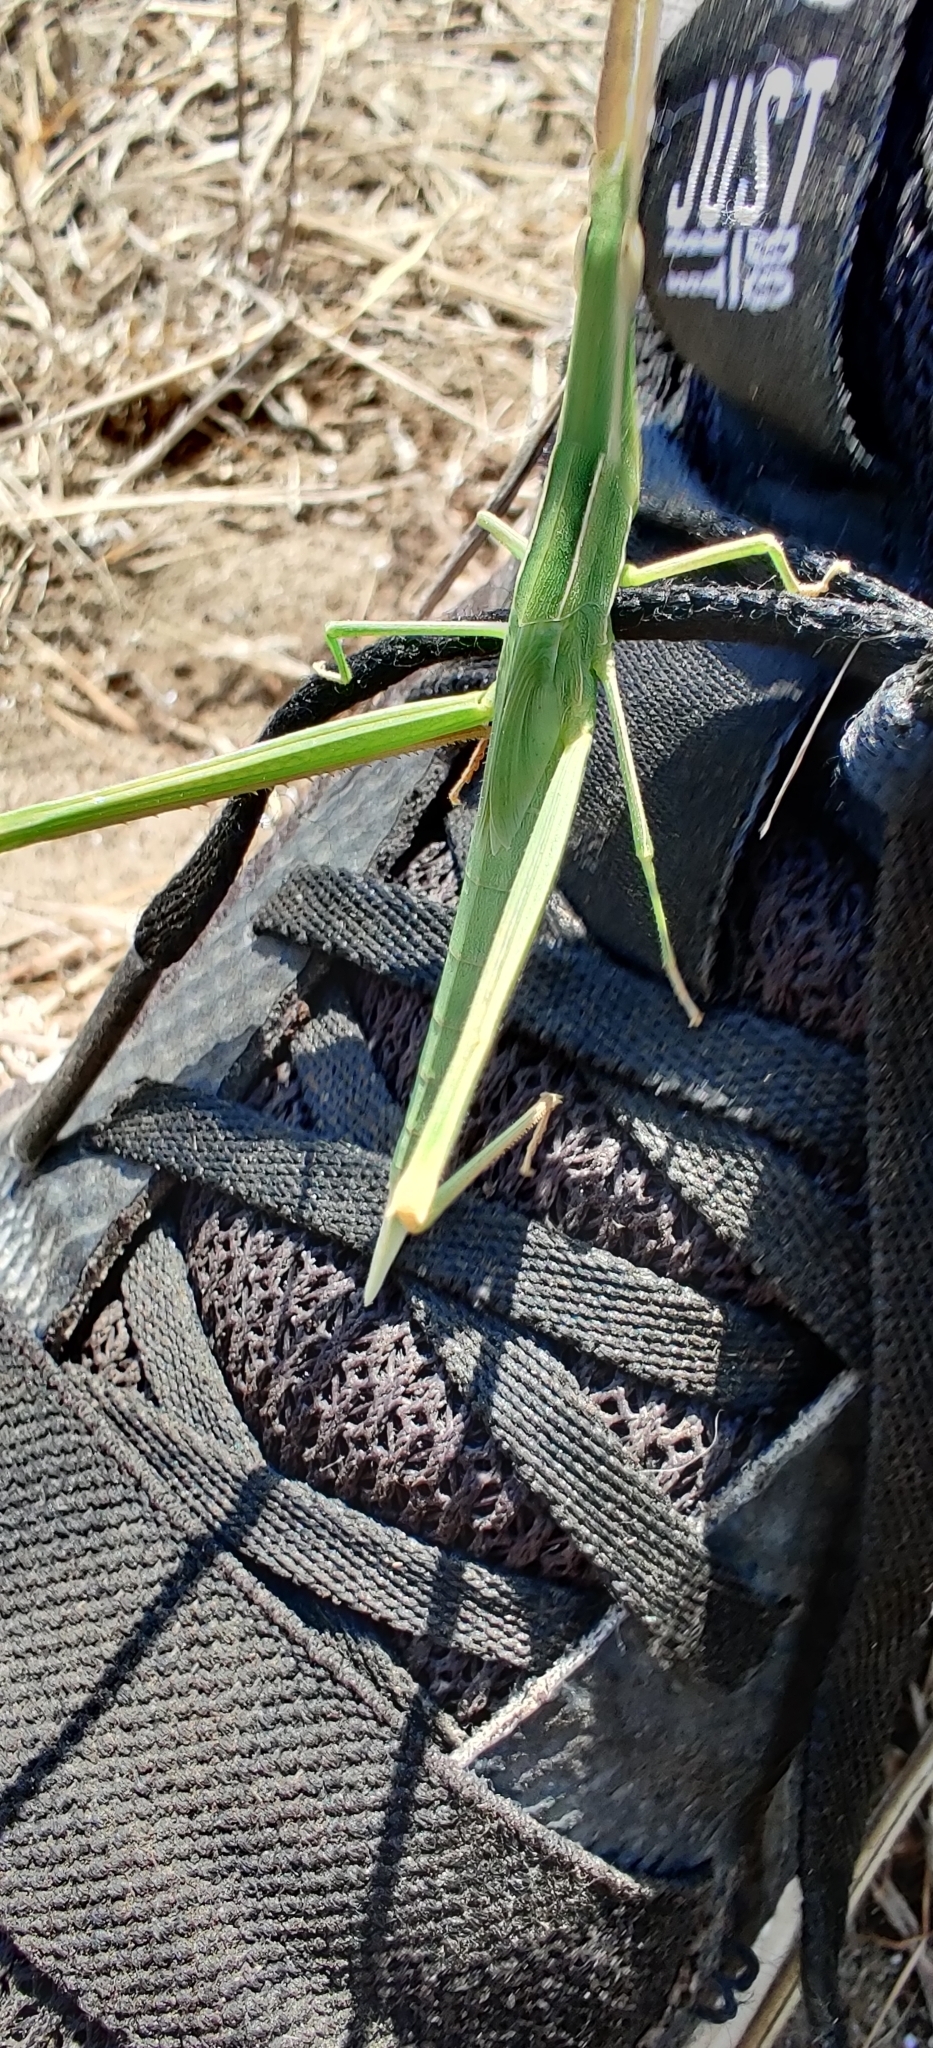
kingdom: Animalia
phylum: Arthropoda
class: Insecta
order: Orthoptera
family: Acrididae
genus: Acrida
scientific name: Acrida ungarica
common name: Common cone-headed grasshopper
